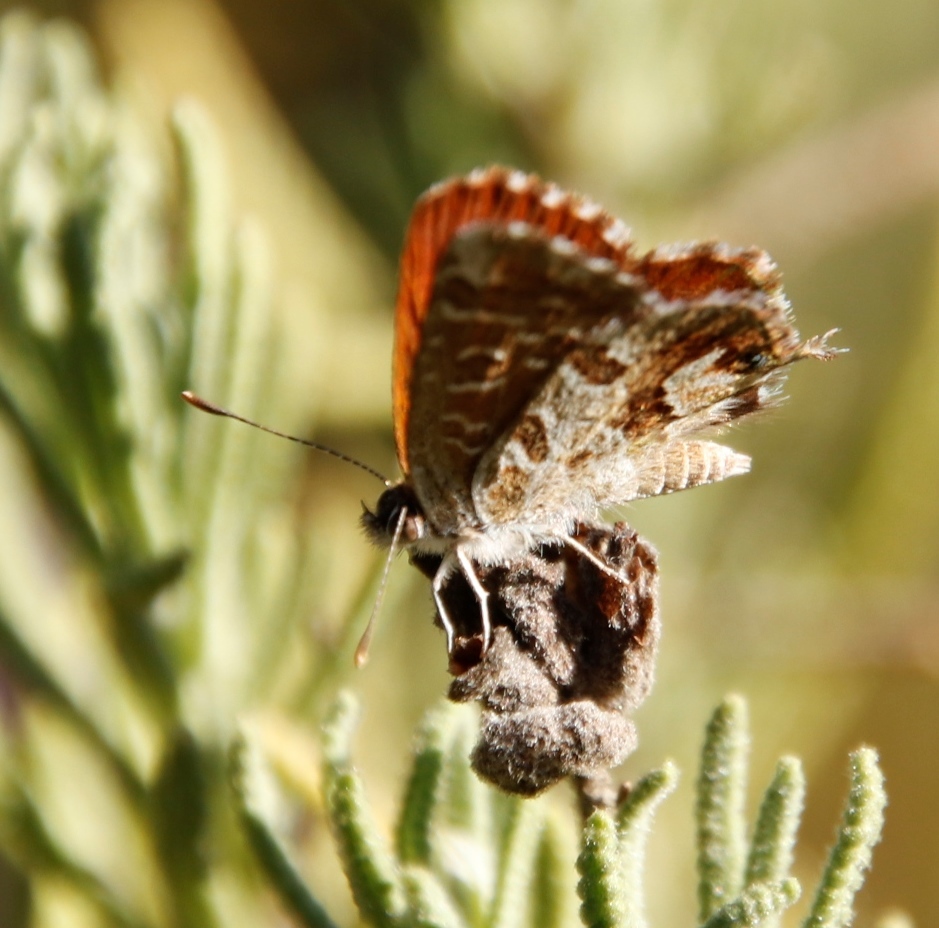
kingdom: Animalia
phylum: Arthropoda
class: Insecta
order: Lepidoptera
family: Lycaenidae
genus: Cacyreus
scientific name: Cacyreus fracta
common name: Water bronze
